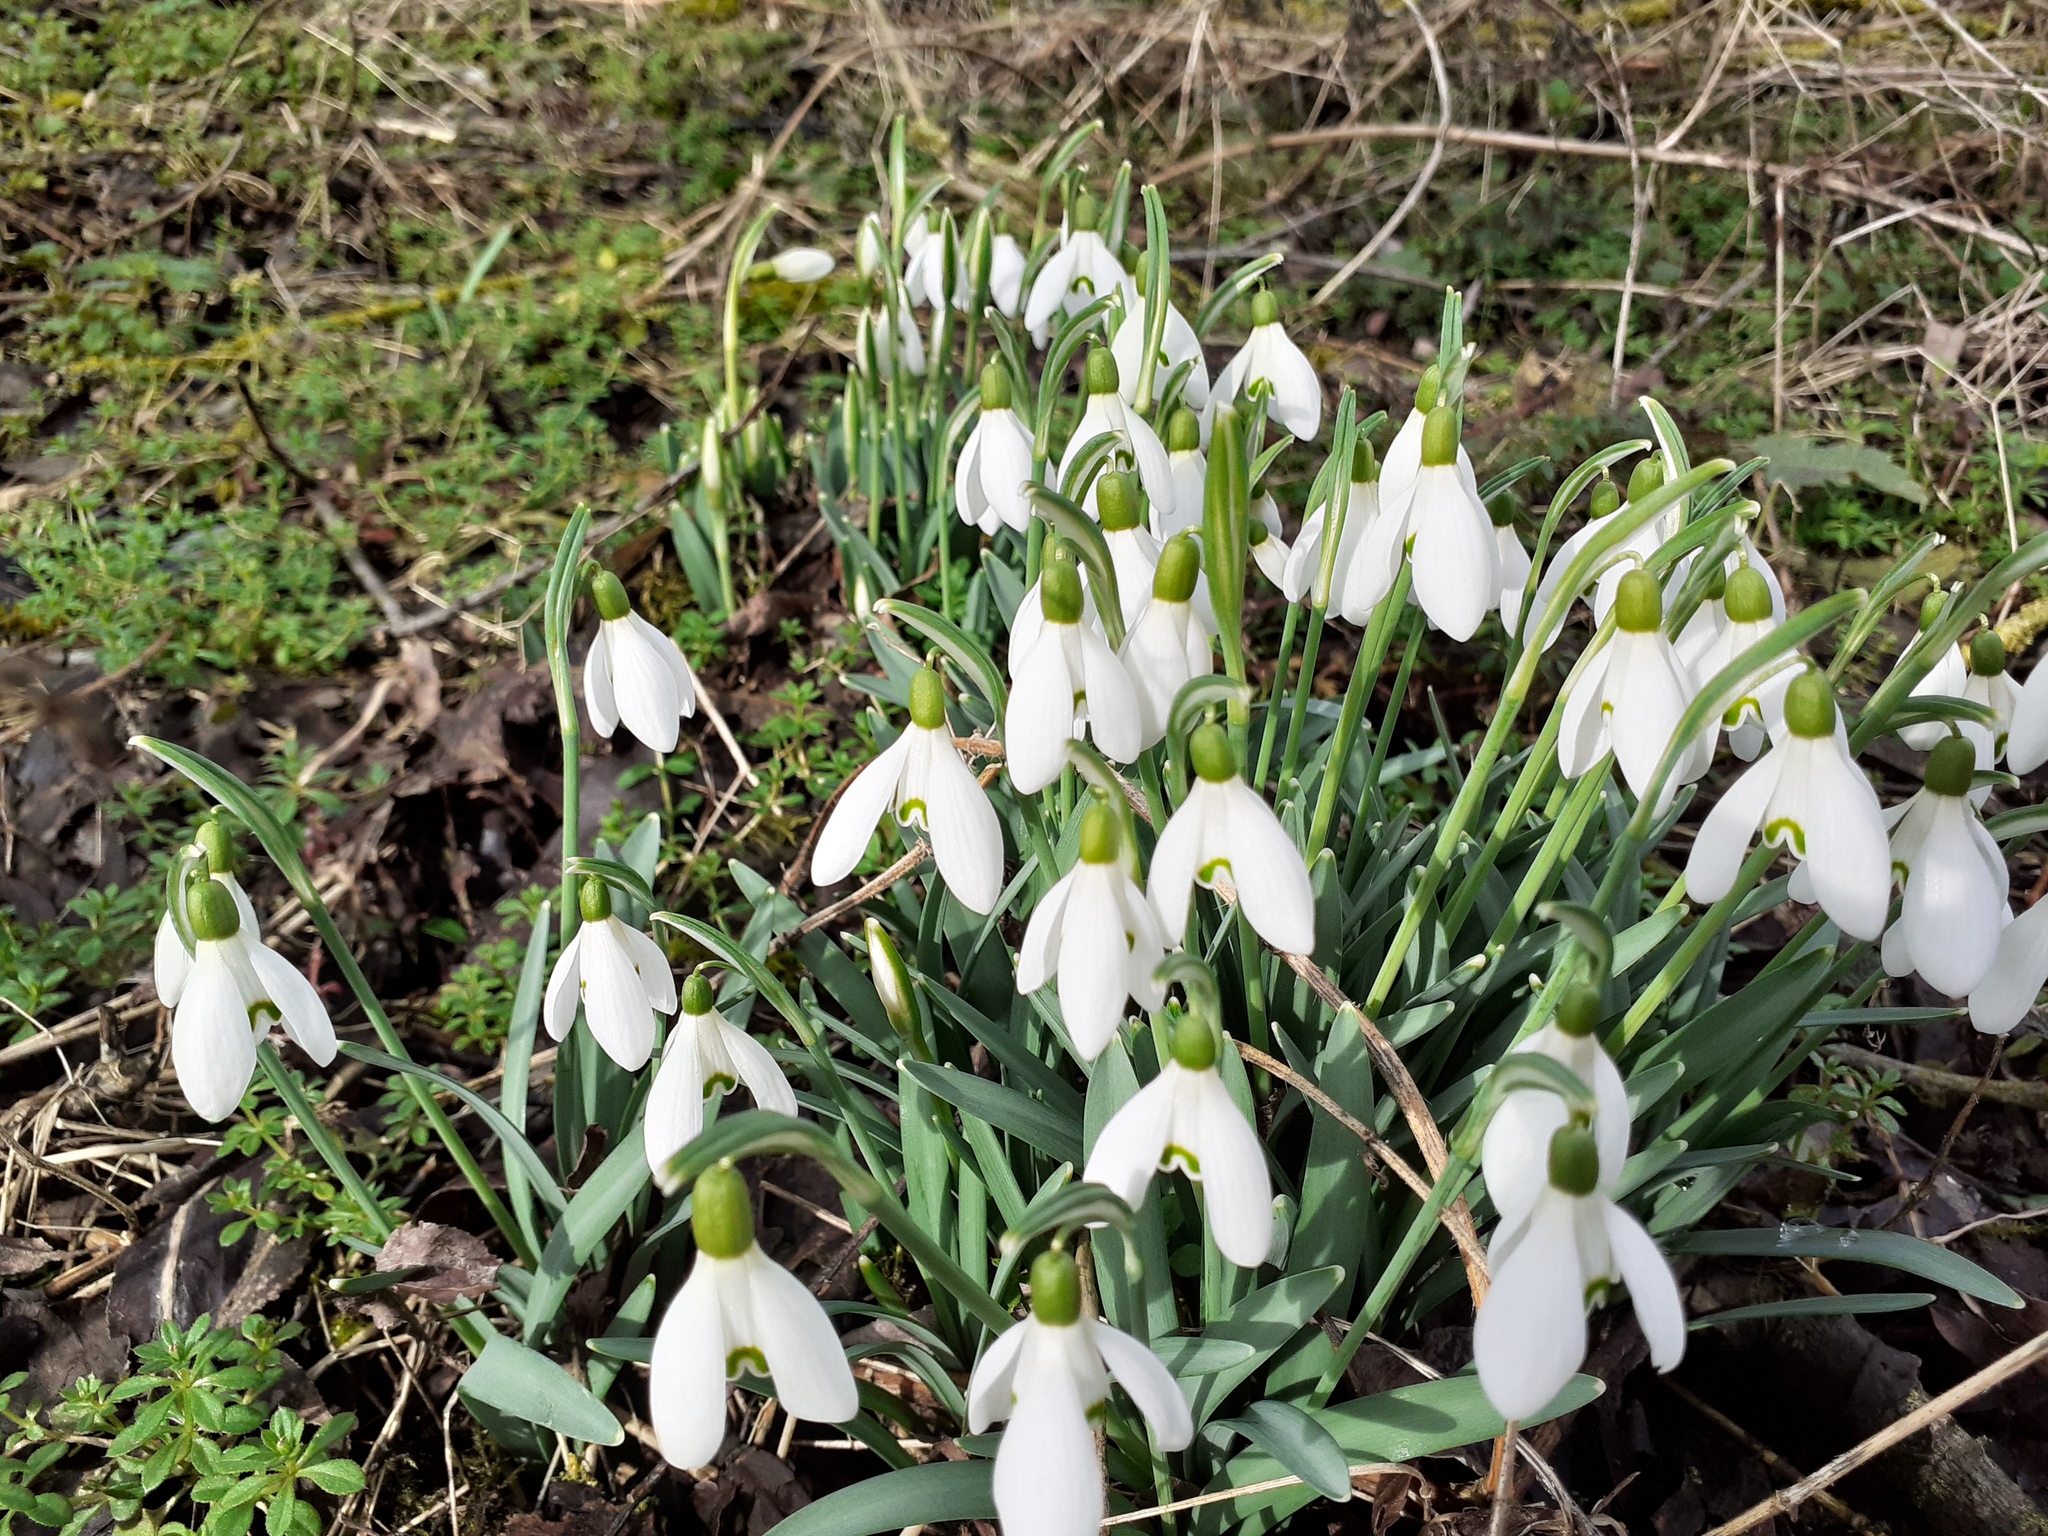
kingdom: Plantae
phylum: Tracheophyta
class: Liliopsida
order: Asparagales
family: Amaryllidaceae
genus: Galanthus
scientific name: Galanthus nivalis
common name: Snowdrop
